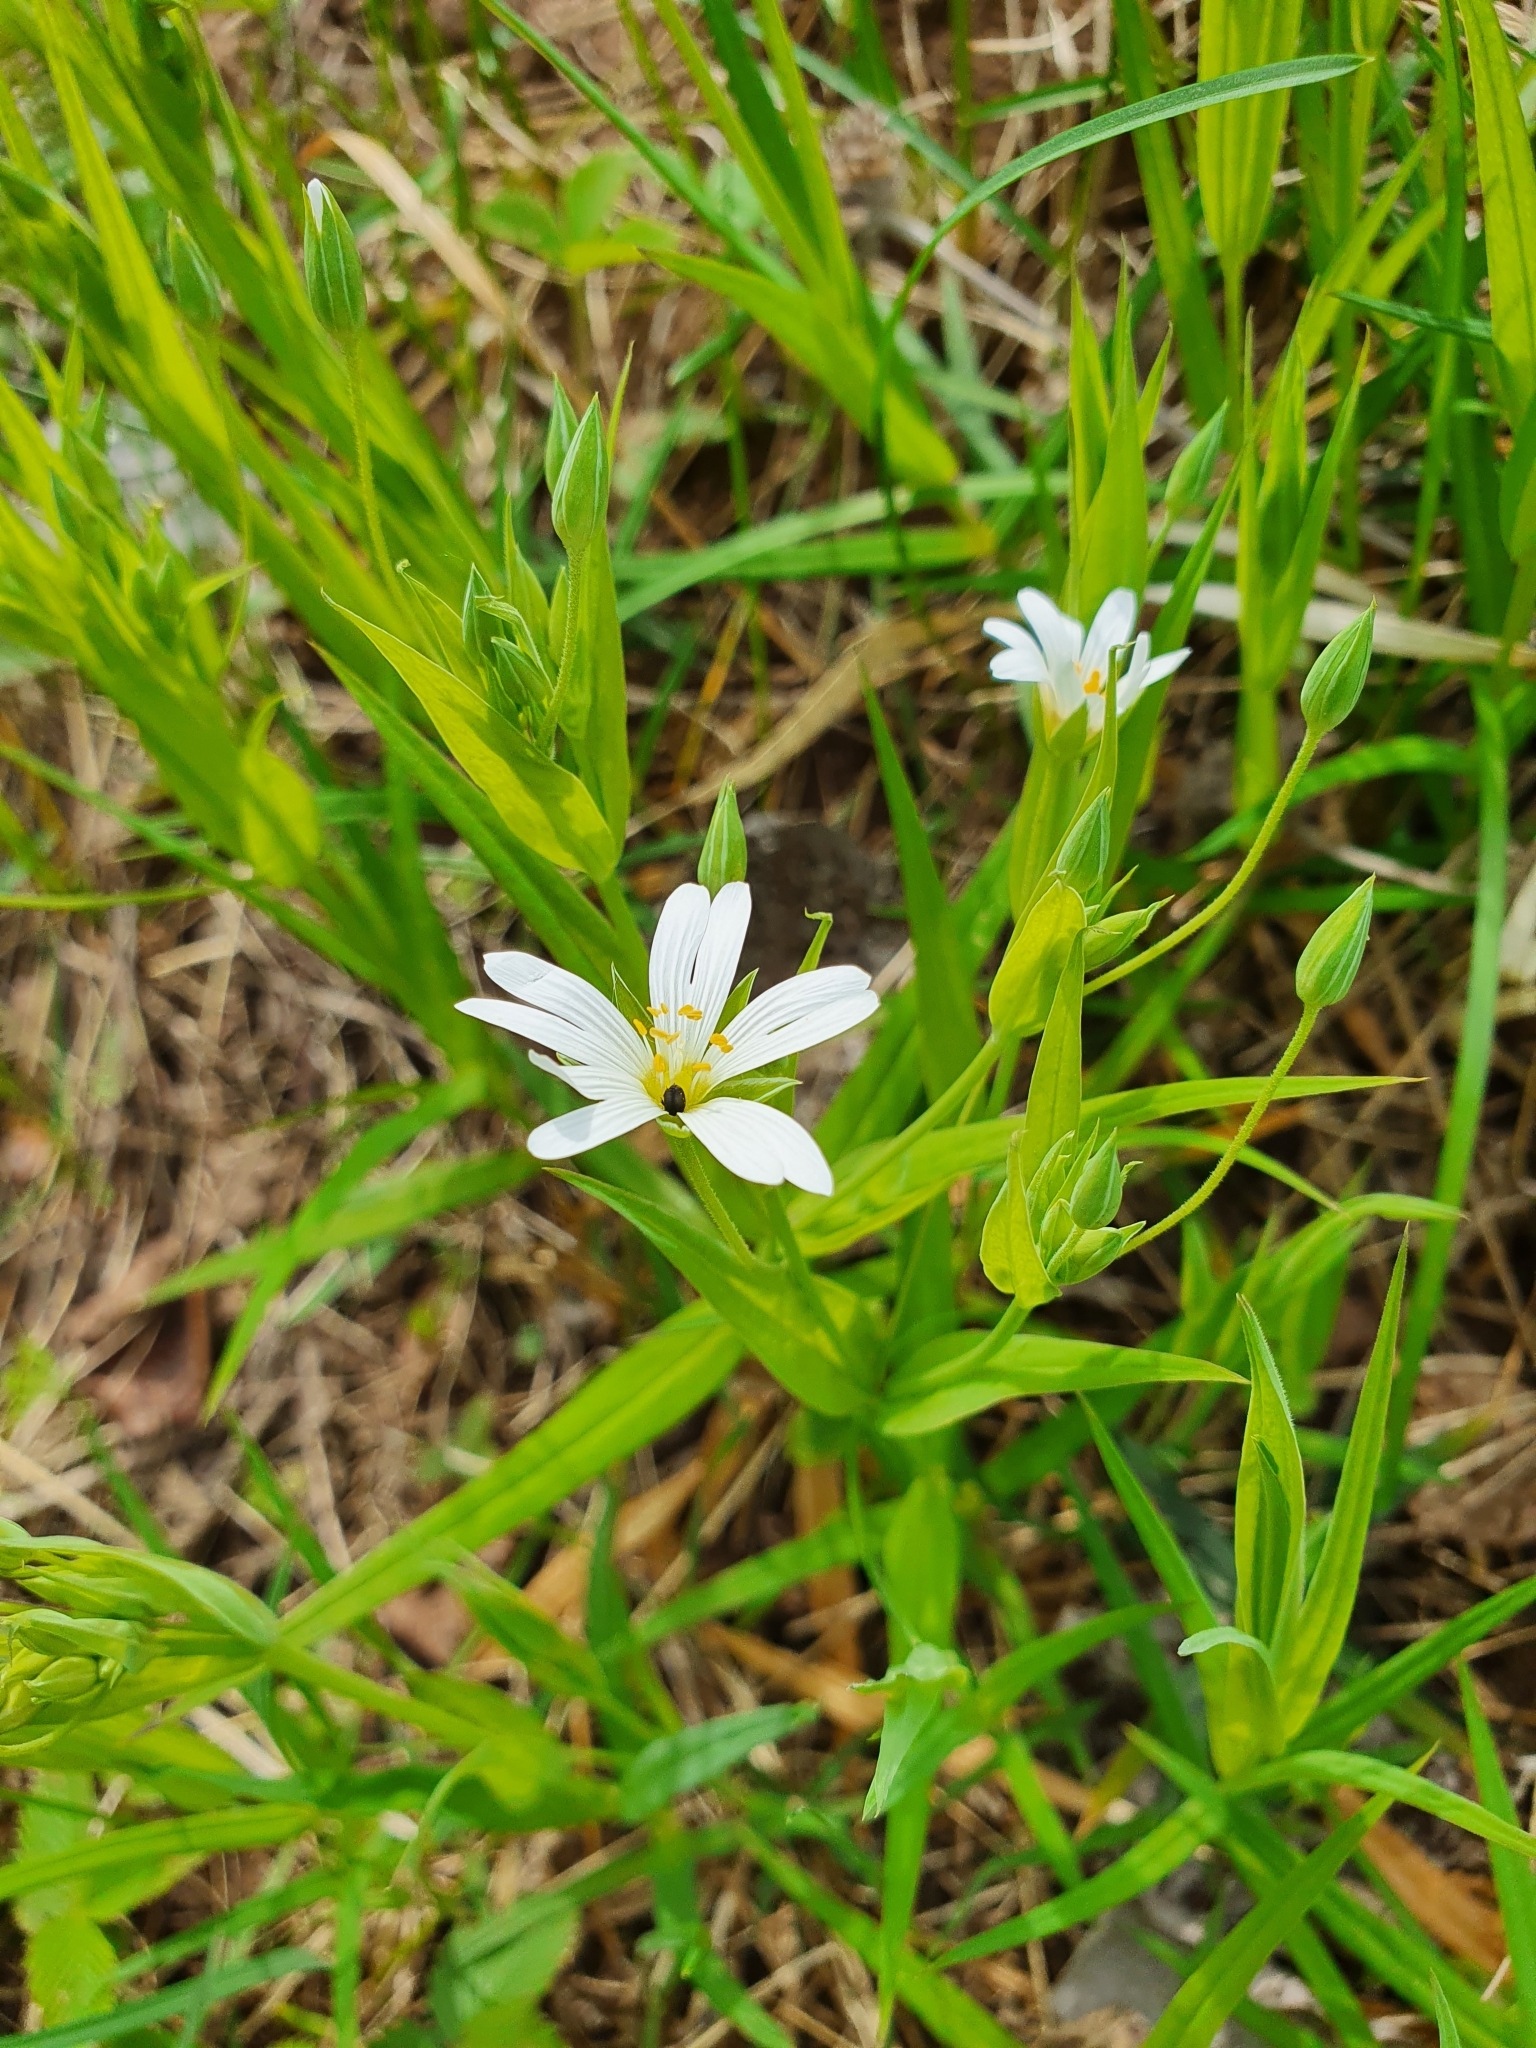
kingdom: Plantae
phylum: Tracheophyta
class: Magnoliopsida
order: Caryophyllales
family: Caryophyllaceae
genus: Rabelera
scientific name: Rabelera holostea
